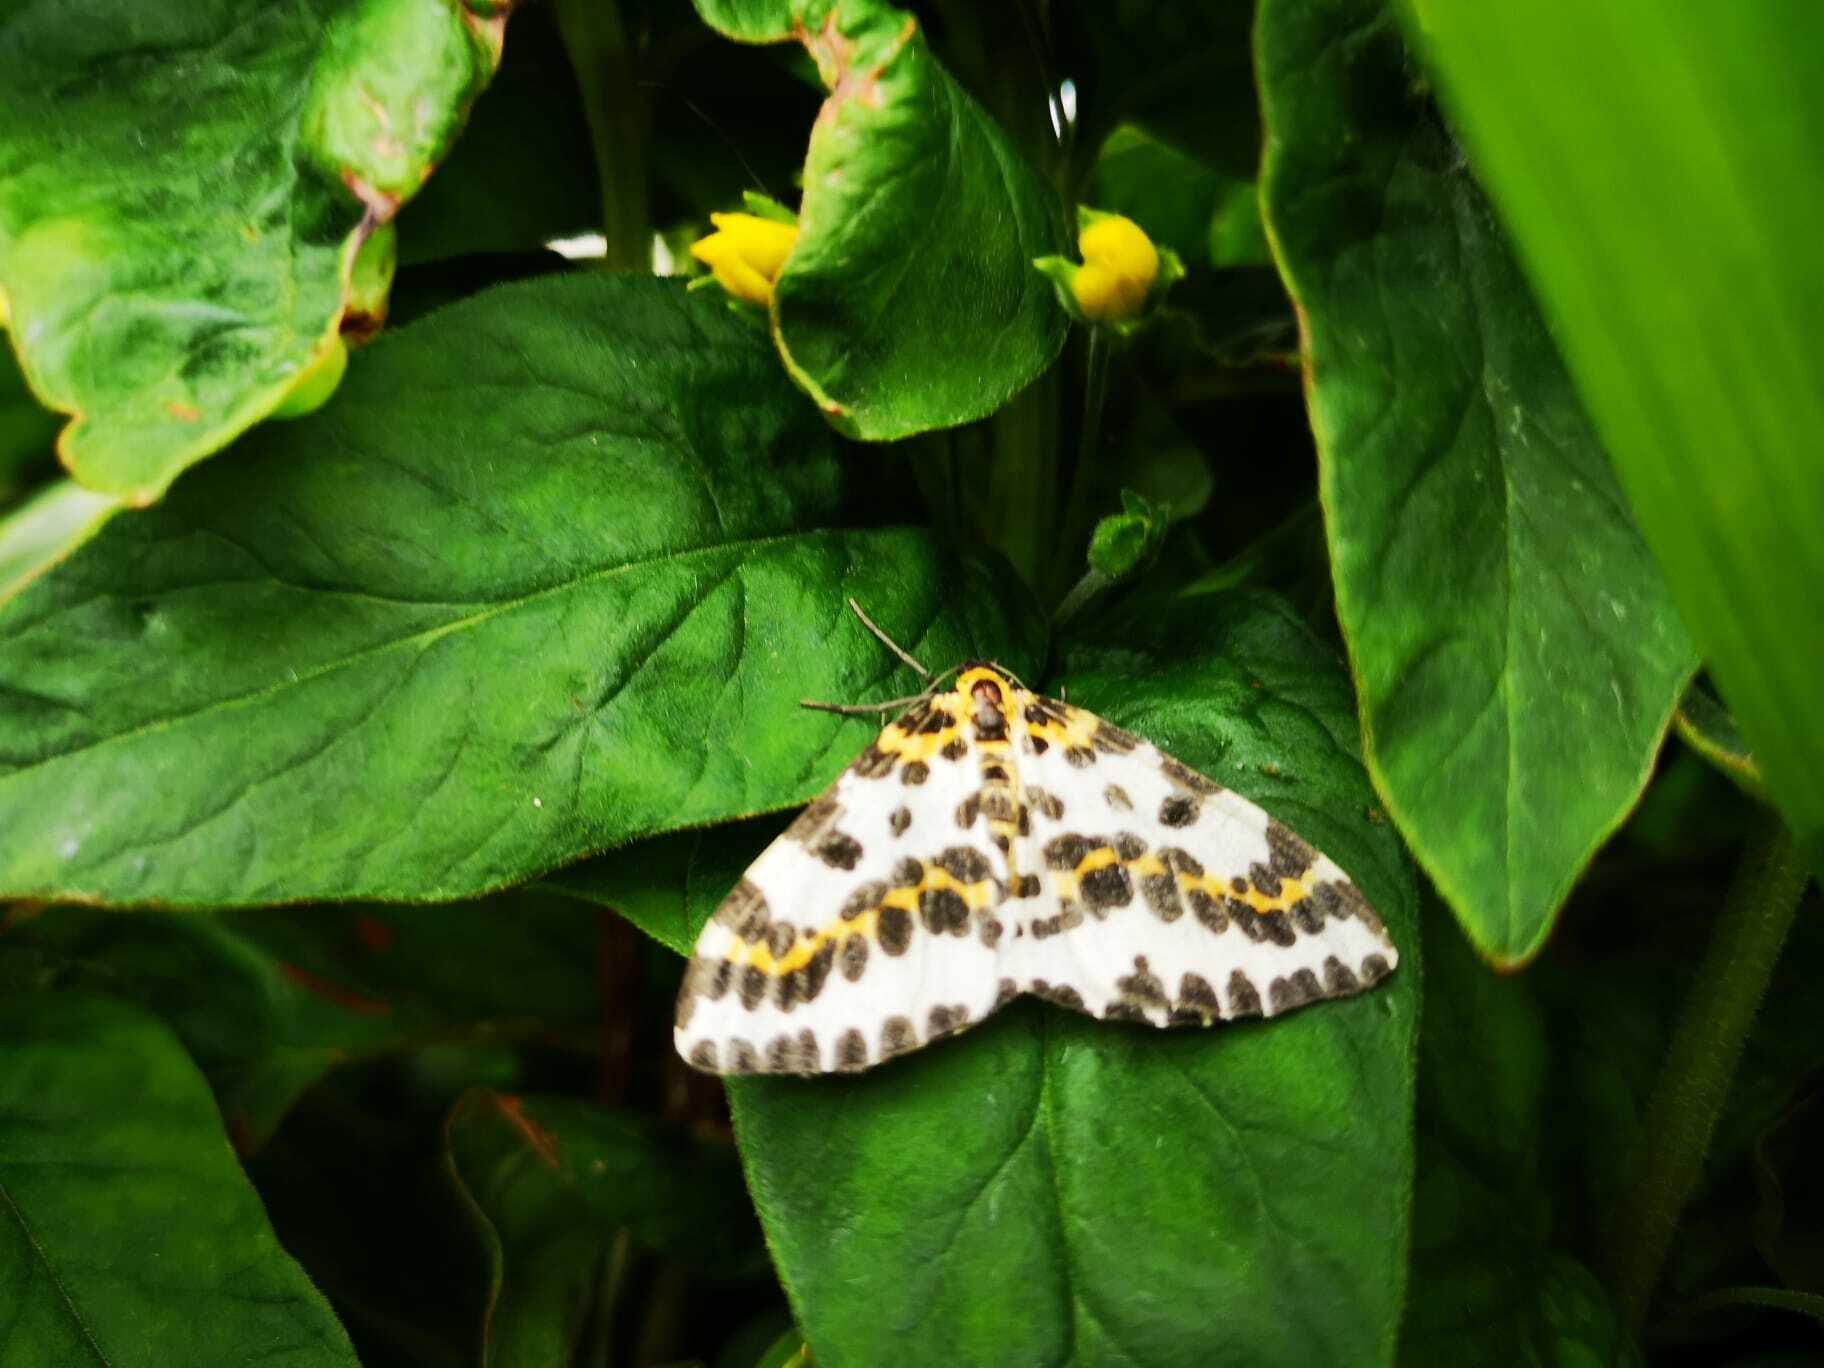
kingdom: Animalia
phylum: Arthropoda
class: Insecta
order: Lepidoptera
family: Geometridae
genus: Abraxas
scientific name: Abraxas grossulariata
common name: Magpie
